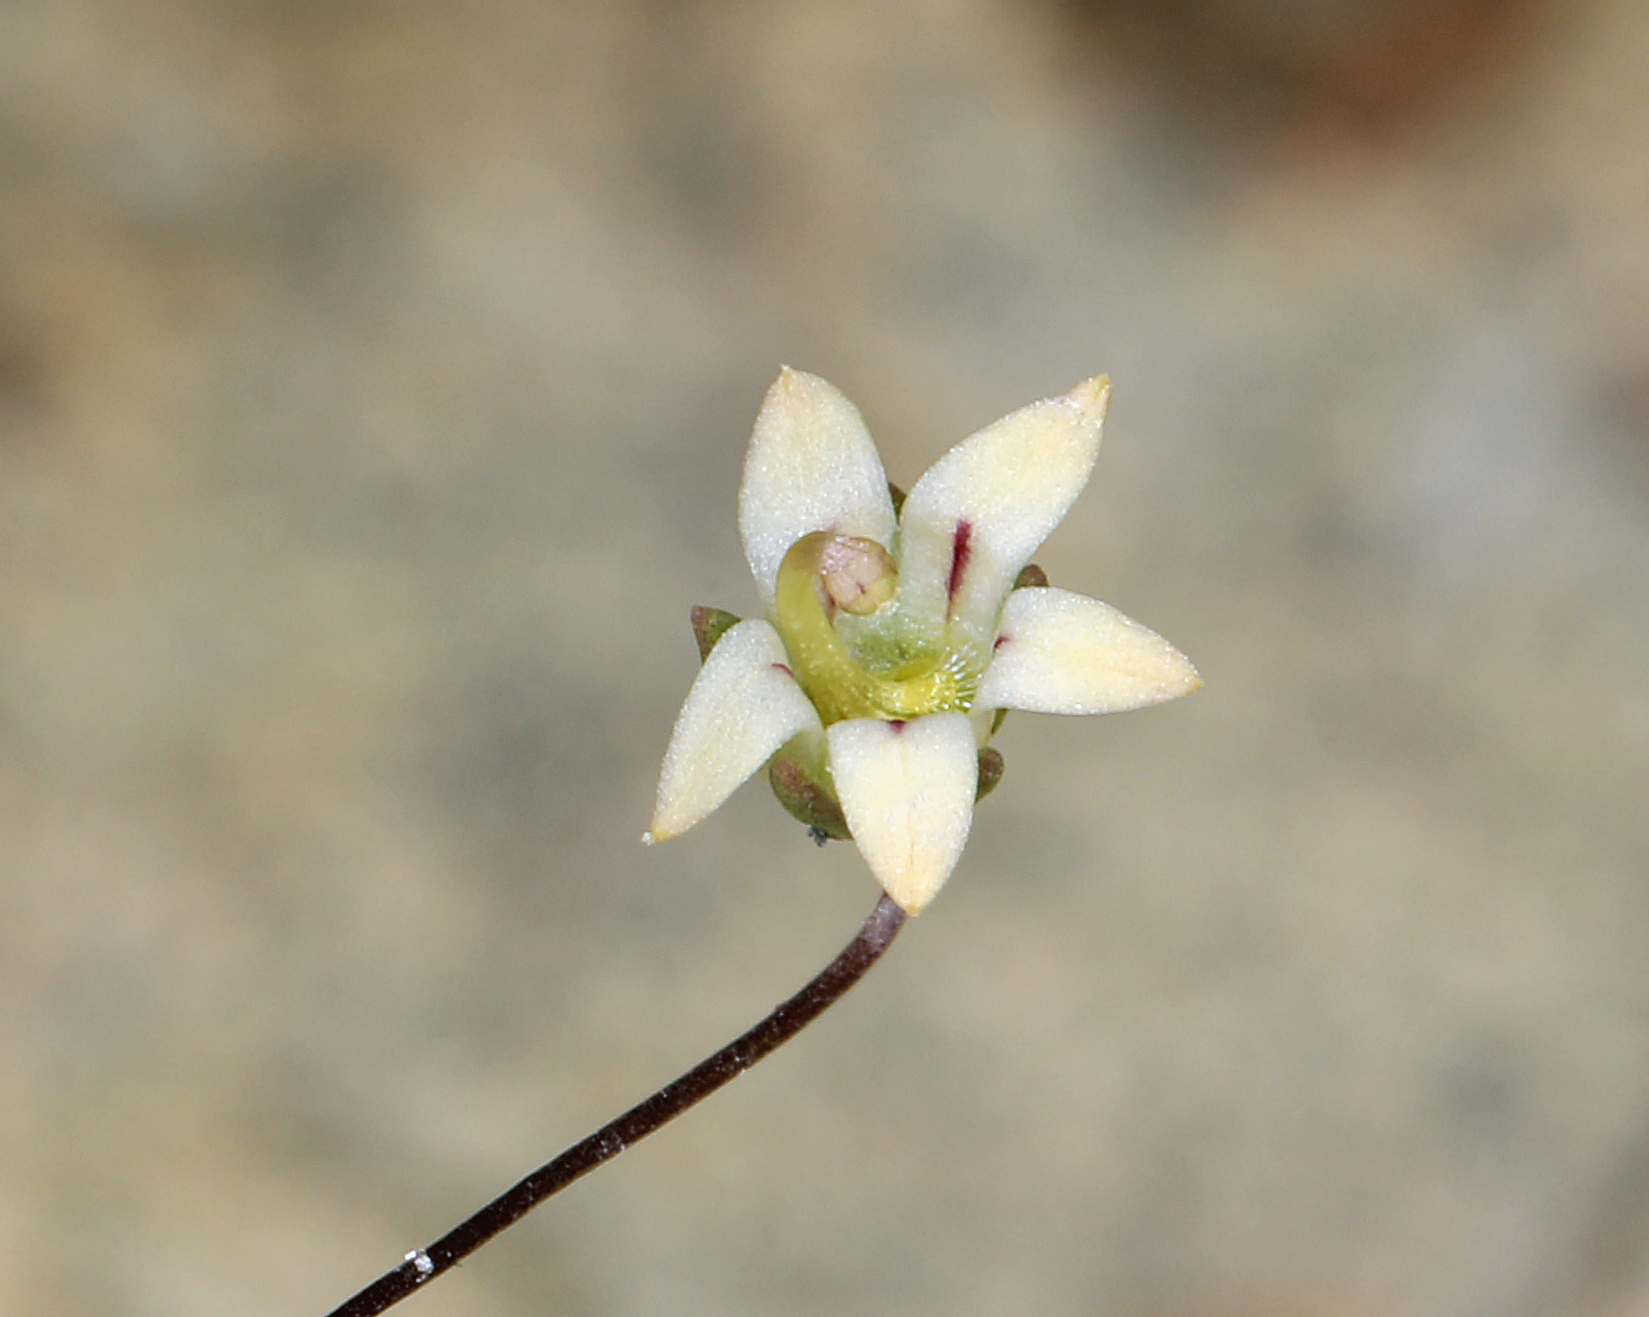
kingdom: Plantae
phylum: Tracheophyta
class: Magnoliopsida
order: Asterales
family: Campanulaceae
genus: Nemacladus
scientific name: Nemacladus inyoensis
